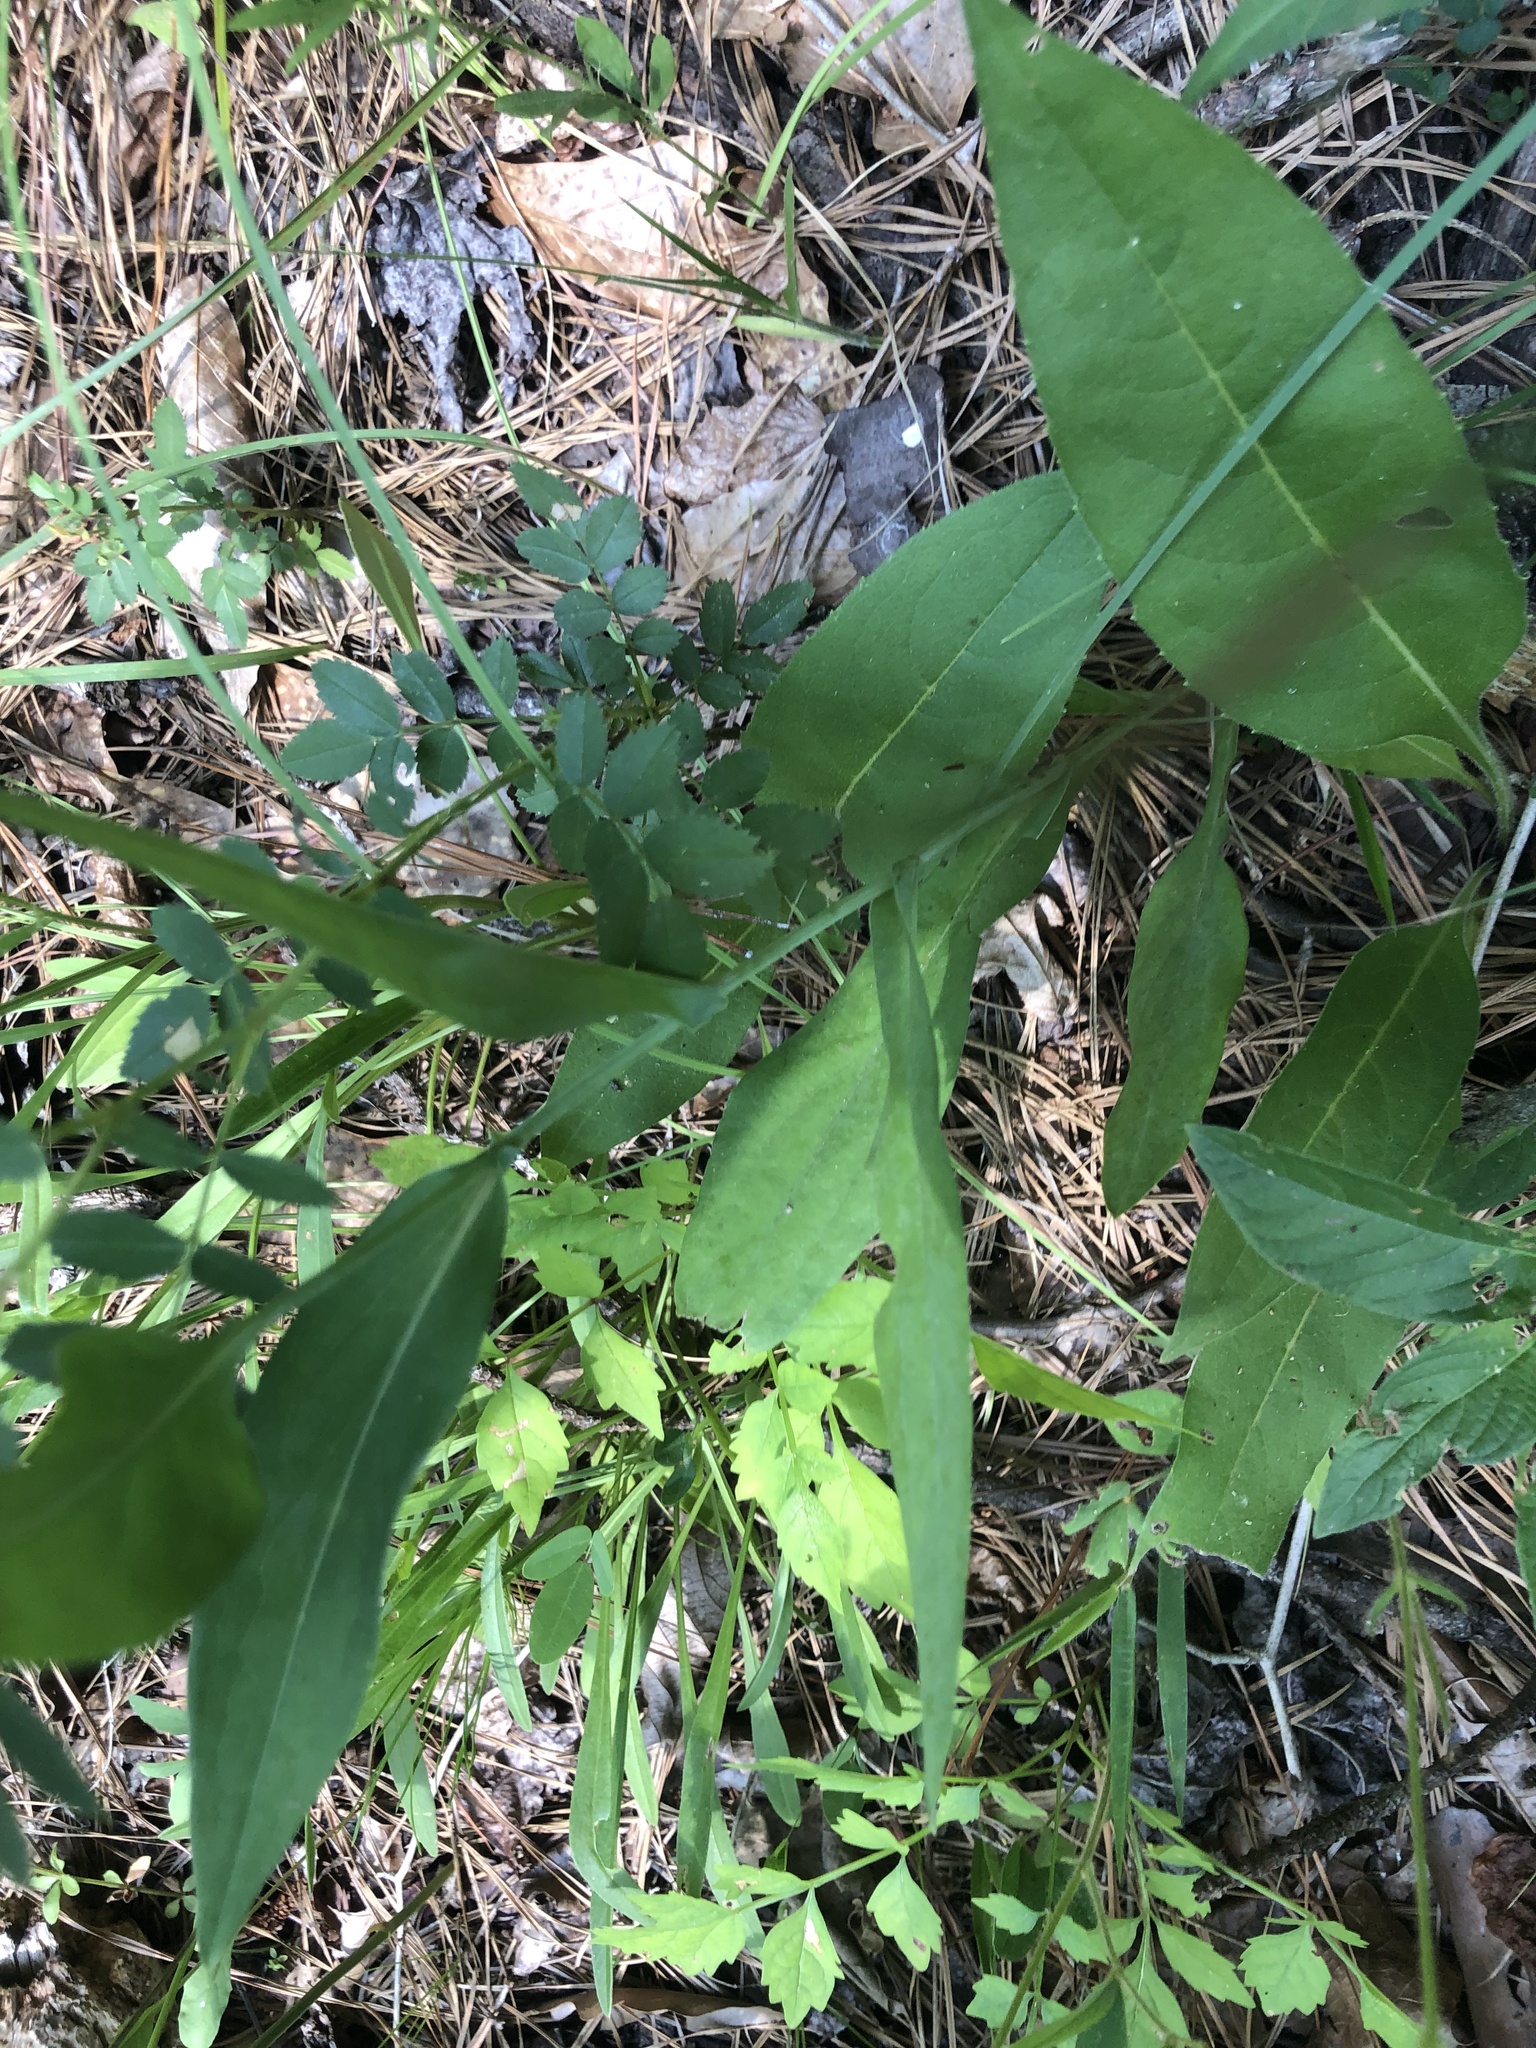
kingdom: Plantae
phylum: Tracheophyta
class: Magnoliopsida
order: Asterales
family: Asteraceae
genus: Symphyotrichum
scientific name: Symphyotrichum laeve
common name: Glaucous aster
